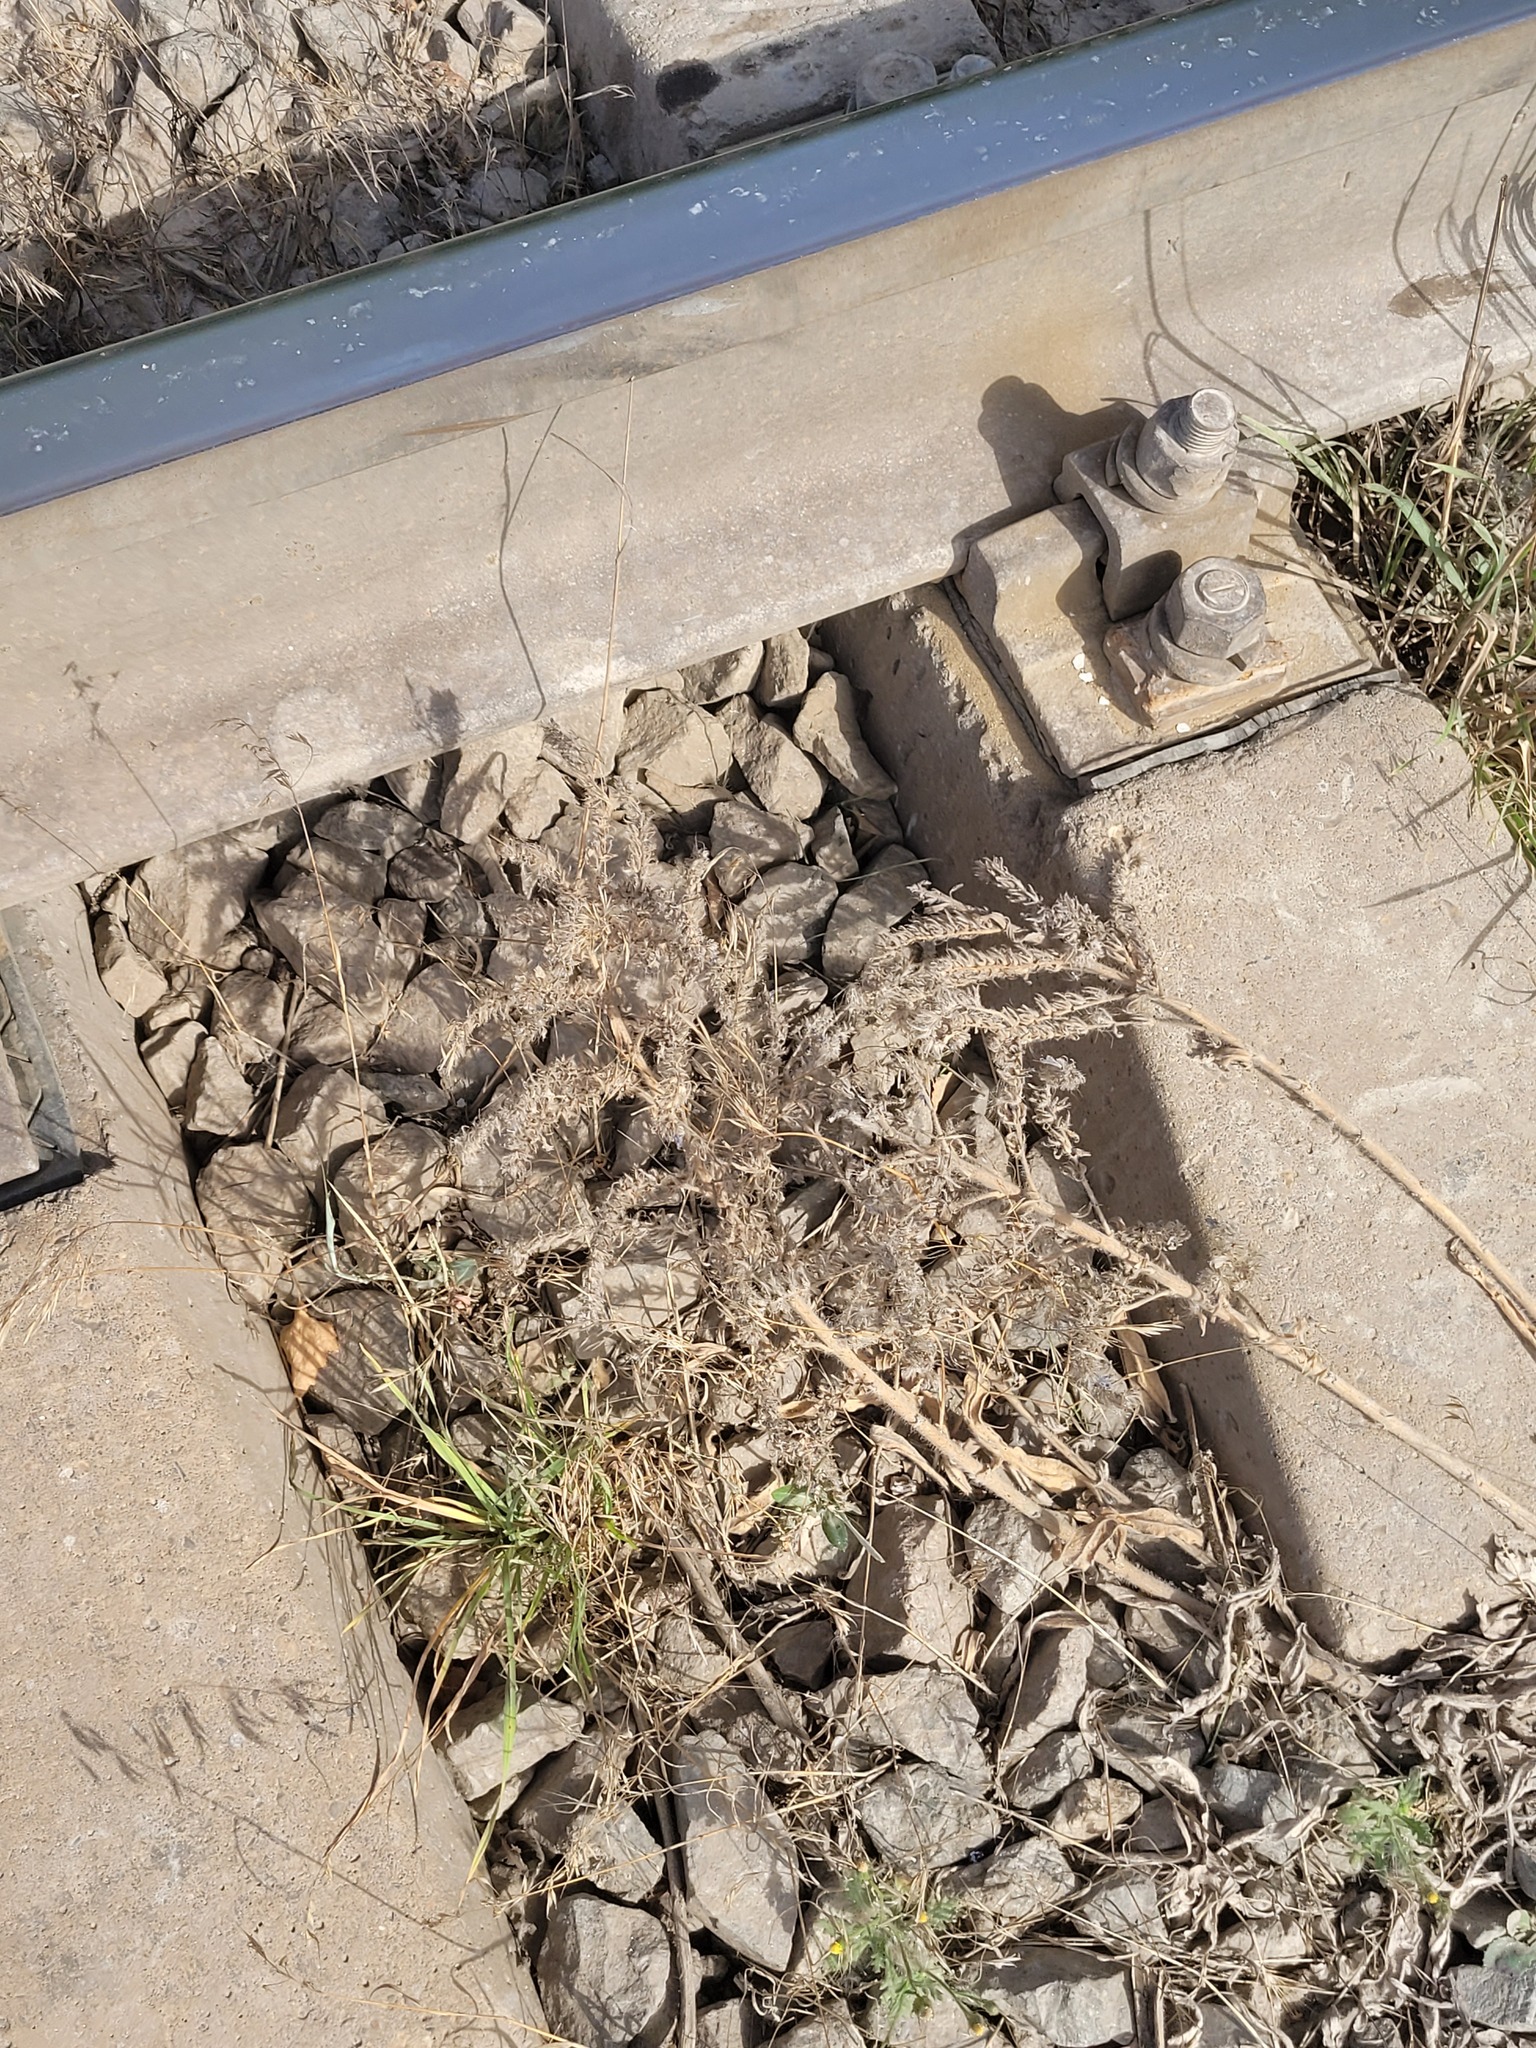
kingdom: Plantae
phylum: Tracheophyta
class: Magnoliopsida
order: Boraginales
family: Boraginaceae
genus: Echium
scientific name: Echium vulgare
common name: Common viper's bugloss
